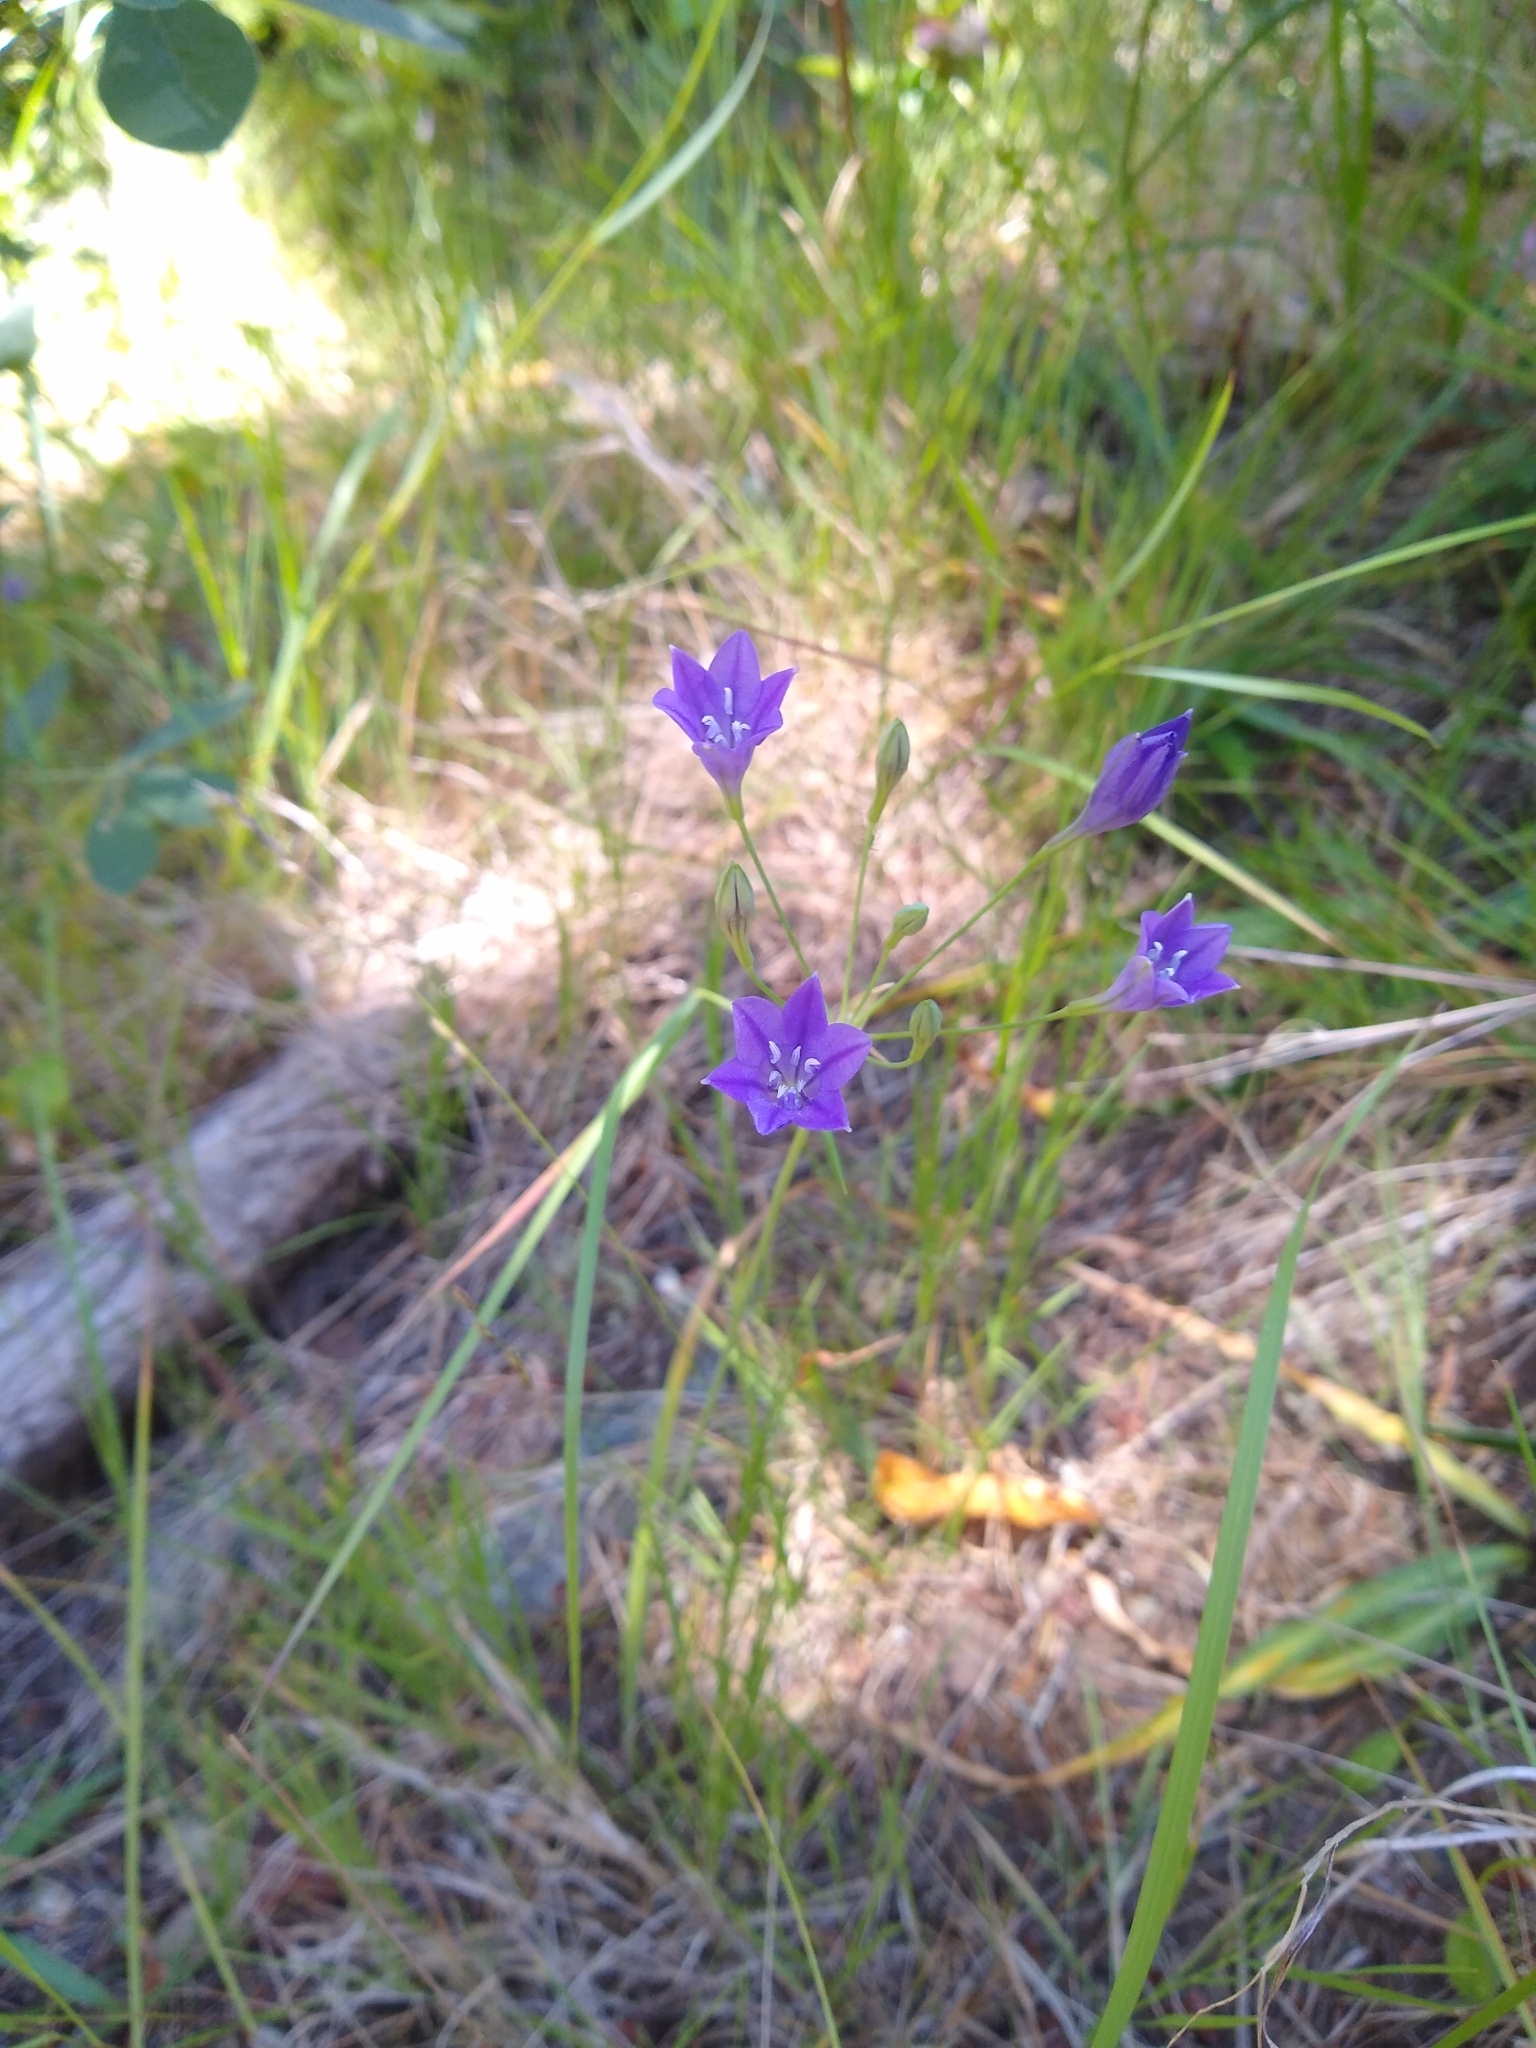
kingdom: Plantae
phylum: Tracheophyta
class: Liliopsida
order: Asparagales
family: Asparagaceae
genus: Triteleia
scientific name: Triteleia laxa
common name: Triplet-lily
